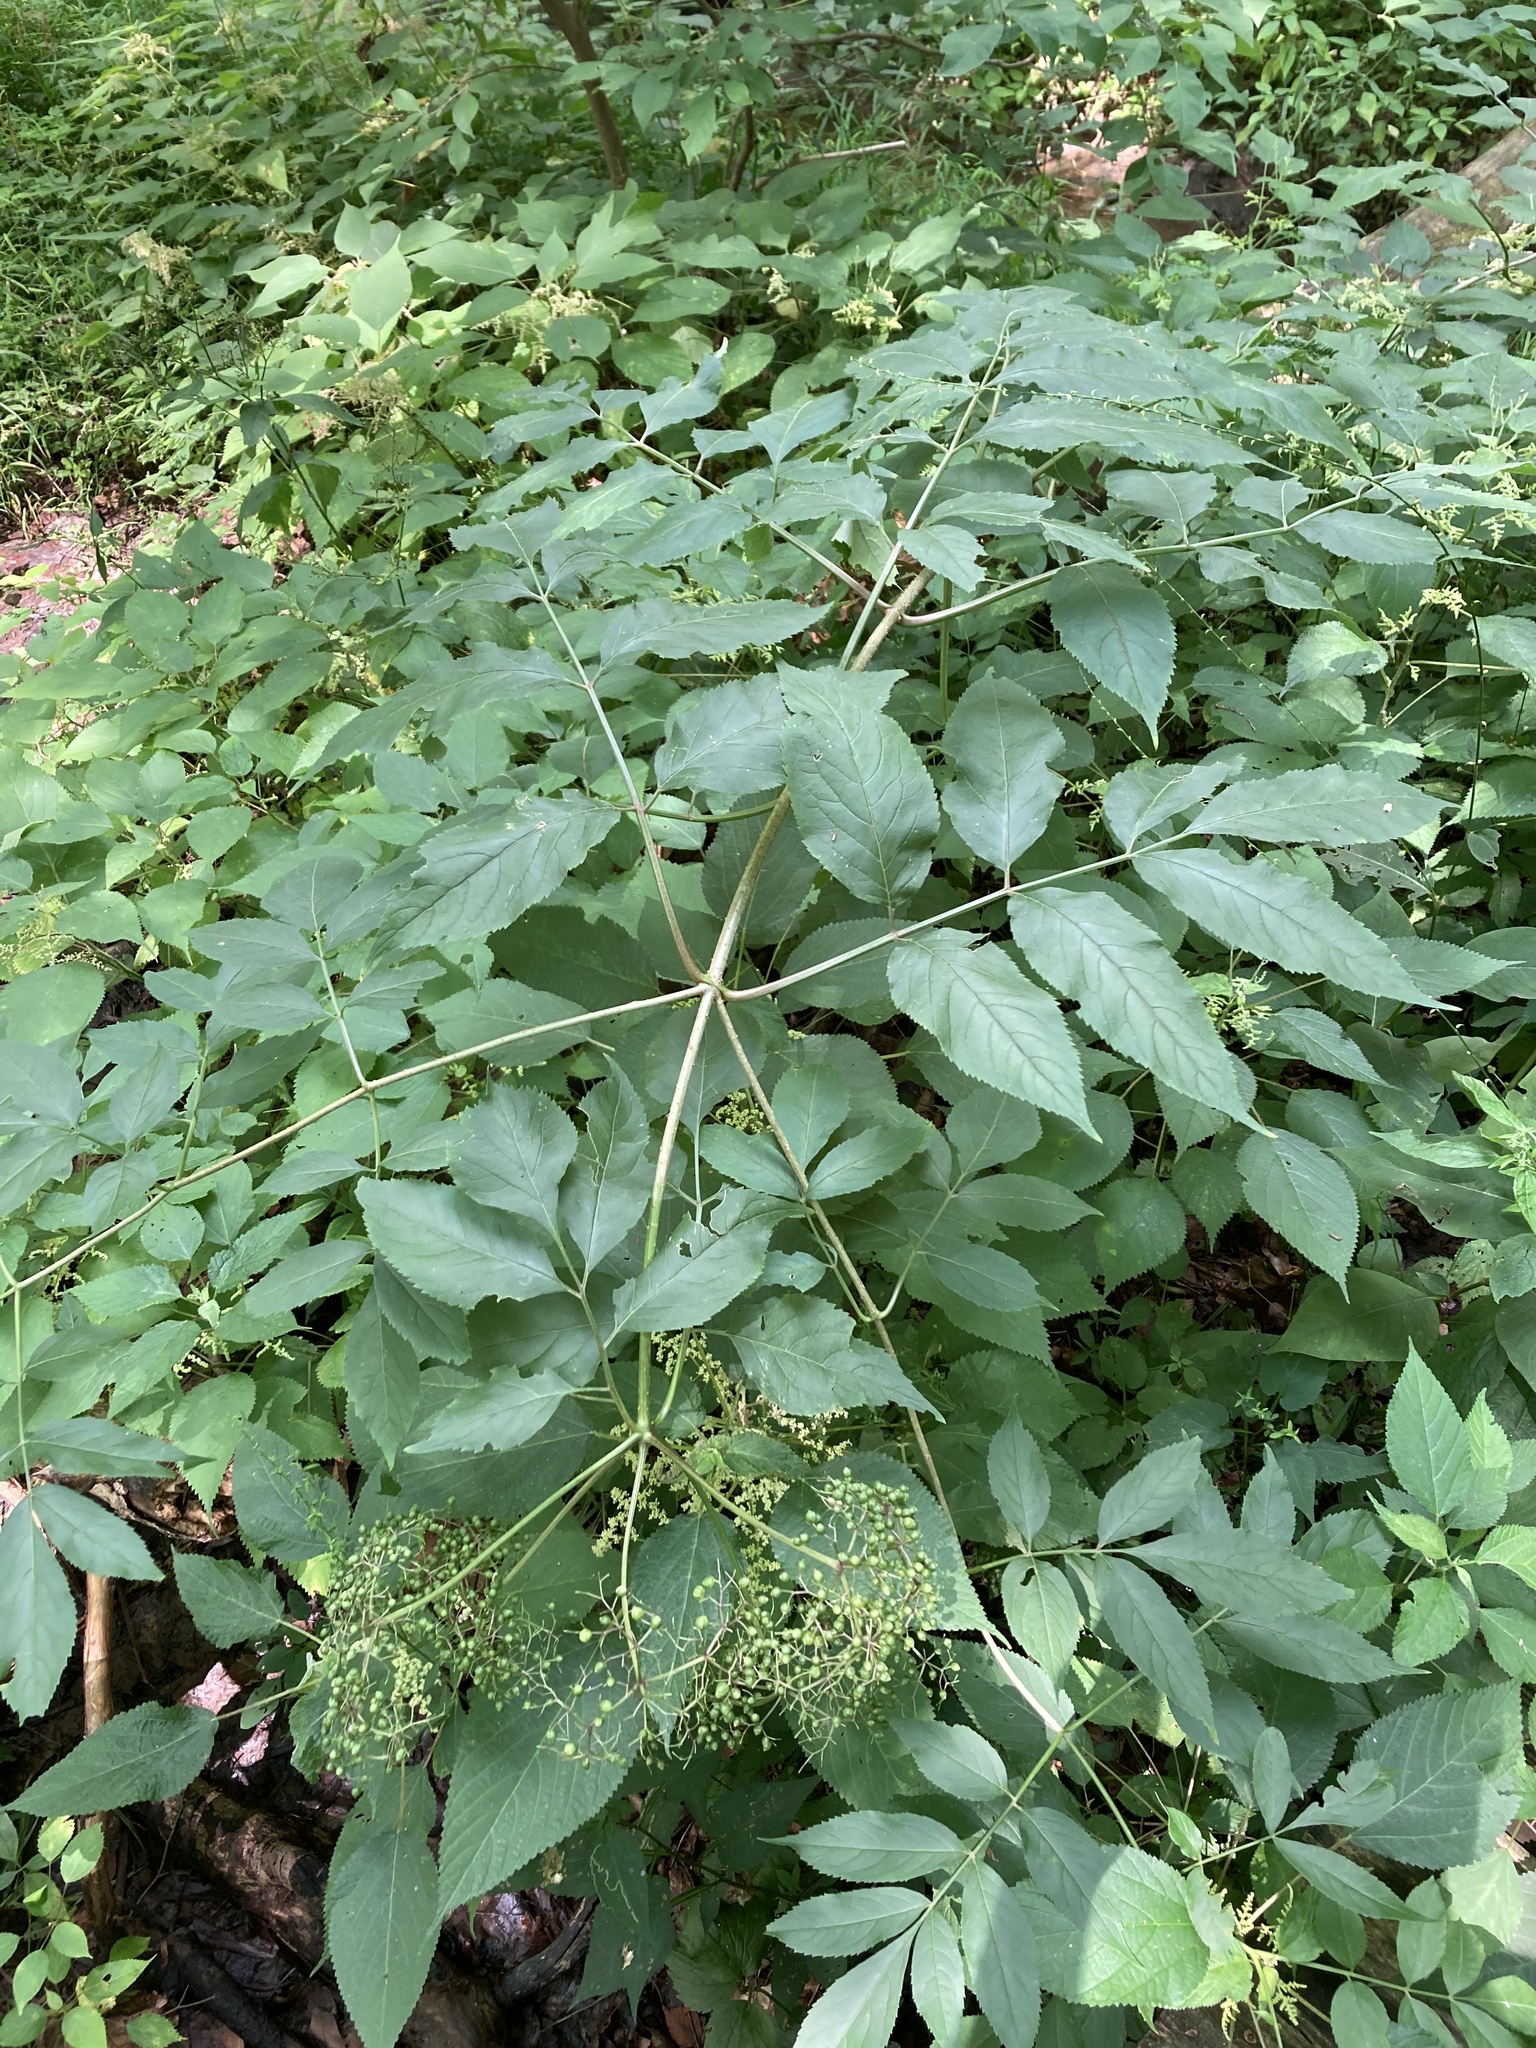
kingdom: Plantae
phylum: Tracheophyta
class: Magnoliopsida
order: Dipsacales
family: Viburnaceae
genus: Sambucus
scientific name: Sambucus canadensis
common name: American elder
